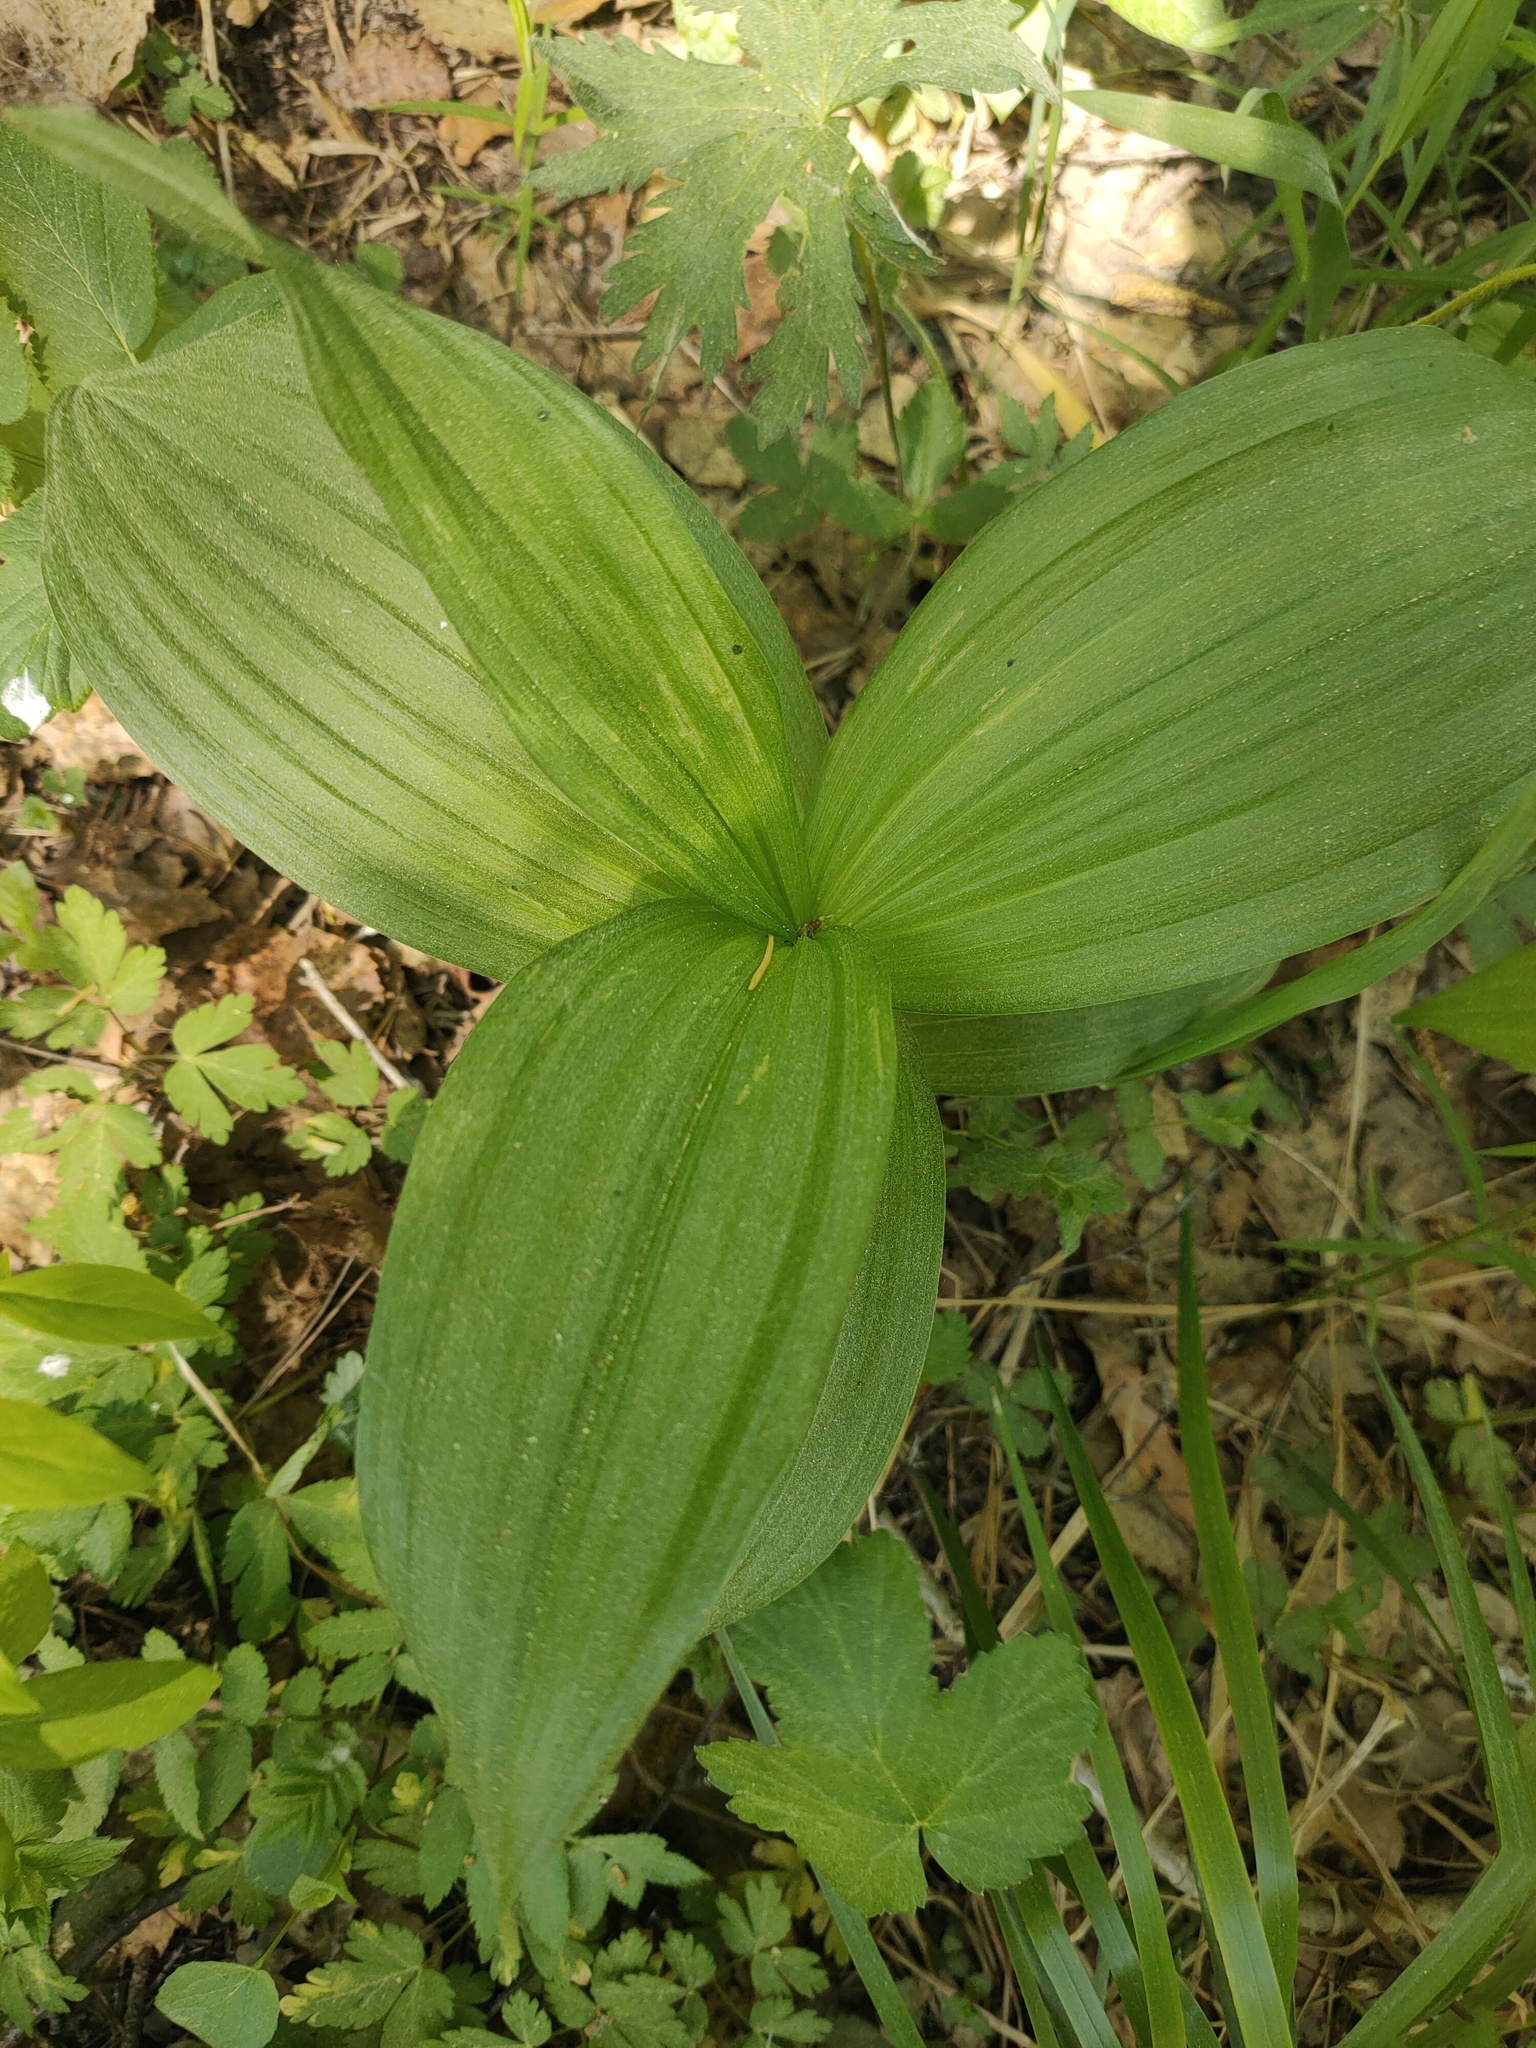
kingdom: Plantae
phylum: Tracheophyta
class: Liliopsida
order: Liliales
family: Melanthiaceae
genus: Veratrum
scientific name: Veratrum lobelianum
